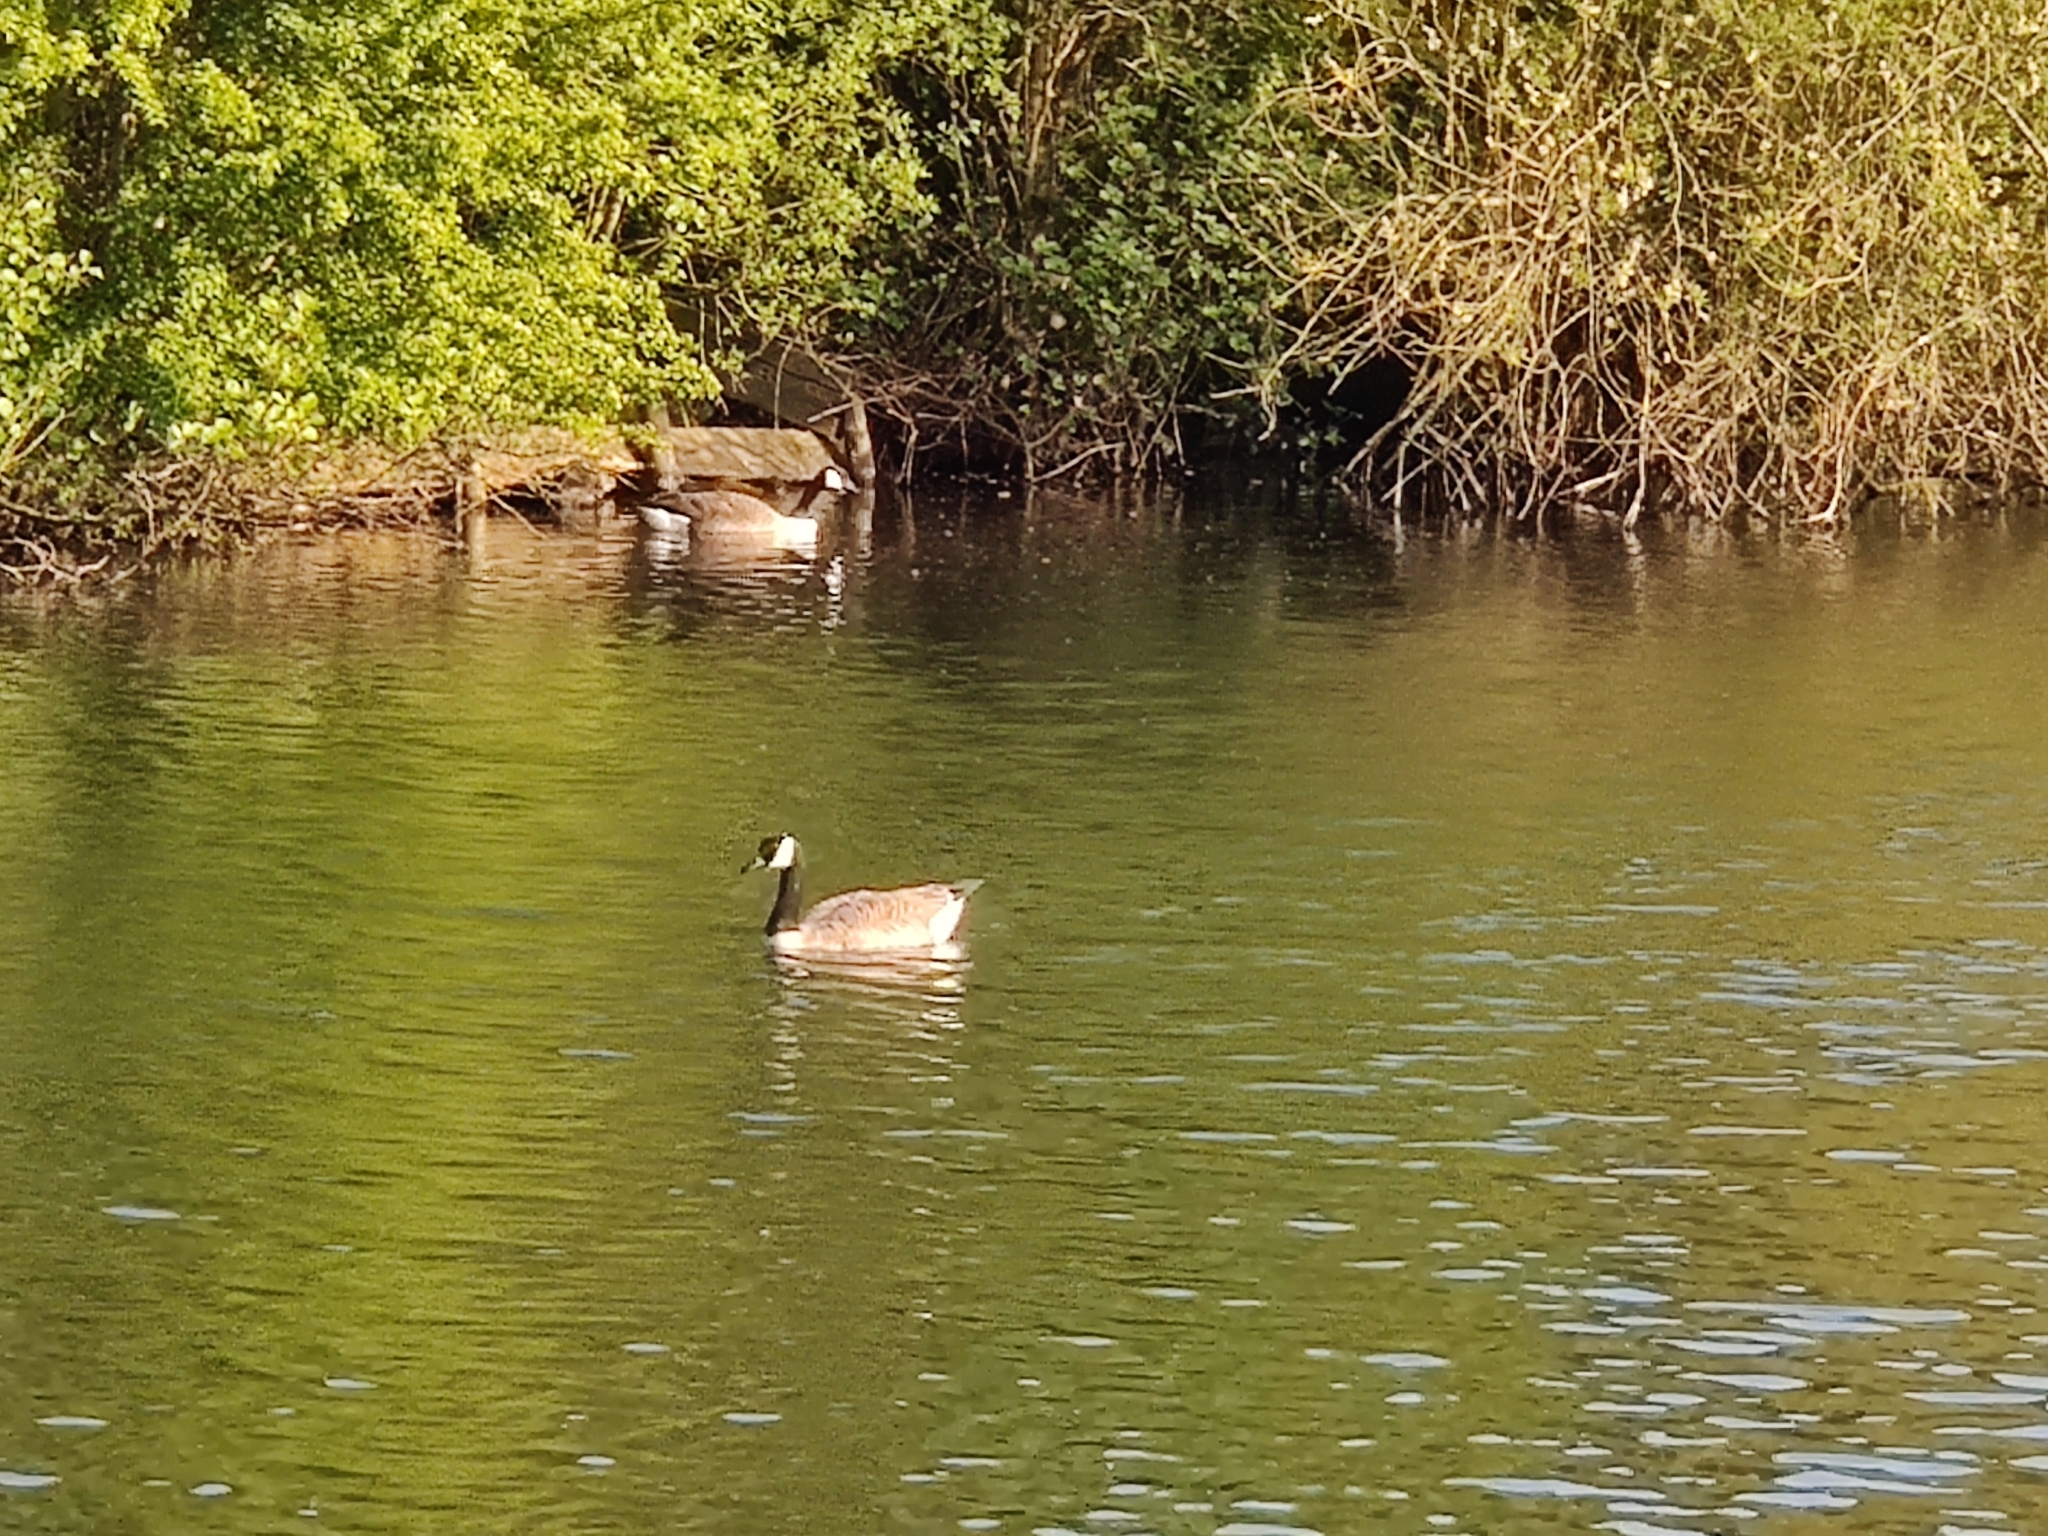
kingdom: Animalia
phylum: Chordata
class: Aves
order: Anseriformes
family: Anatidae
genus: Branta
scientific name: Branta canadensis
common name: Canada goose
